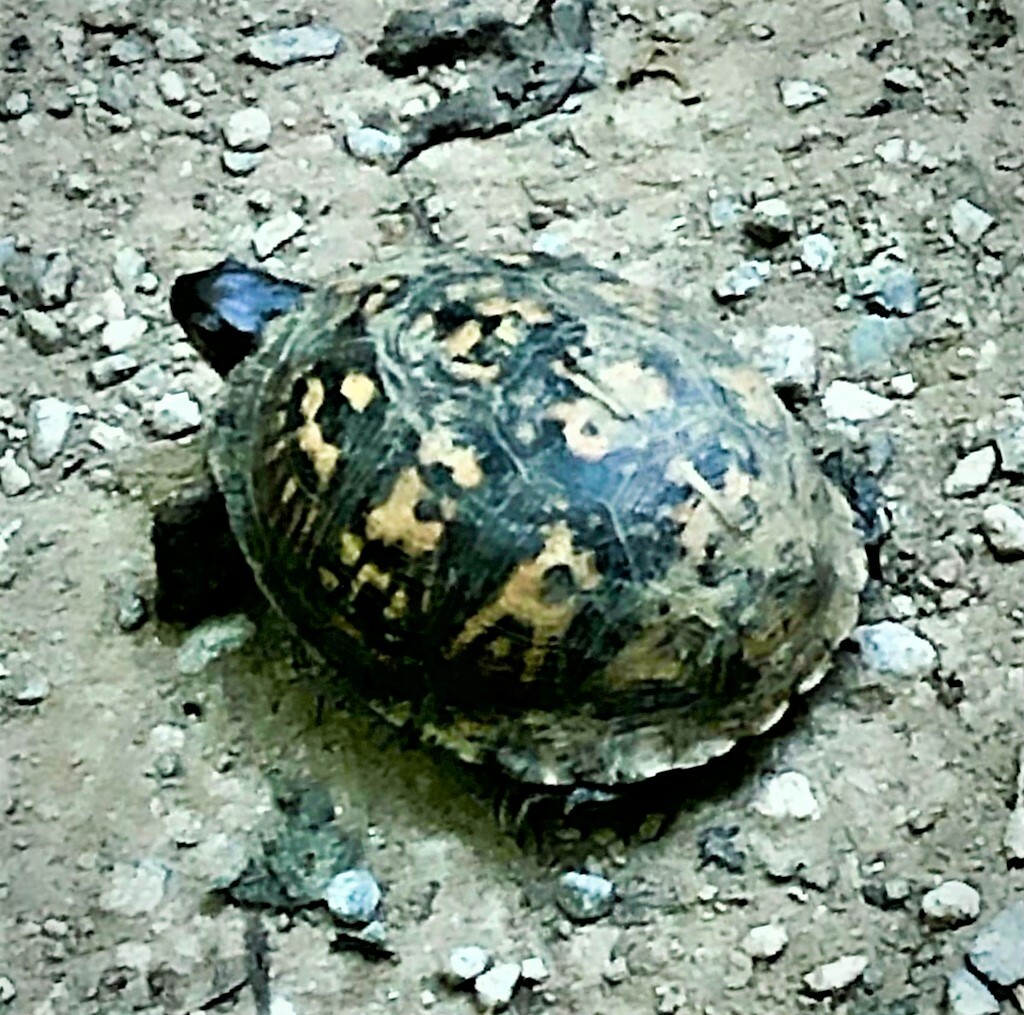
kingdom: Animalia
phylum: Chordata
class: Testudines
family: Emydidae
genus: Terrapene
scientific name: Terrapene carolina
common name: Common box turtle
